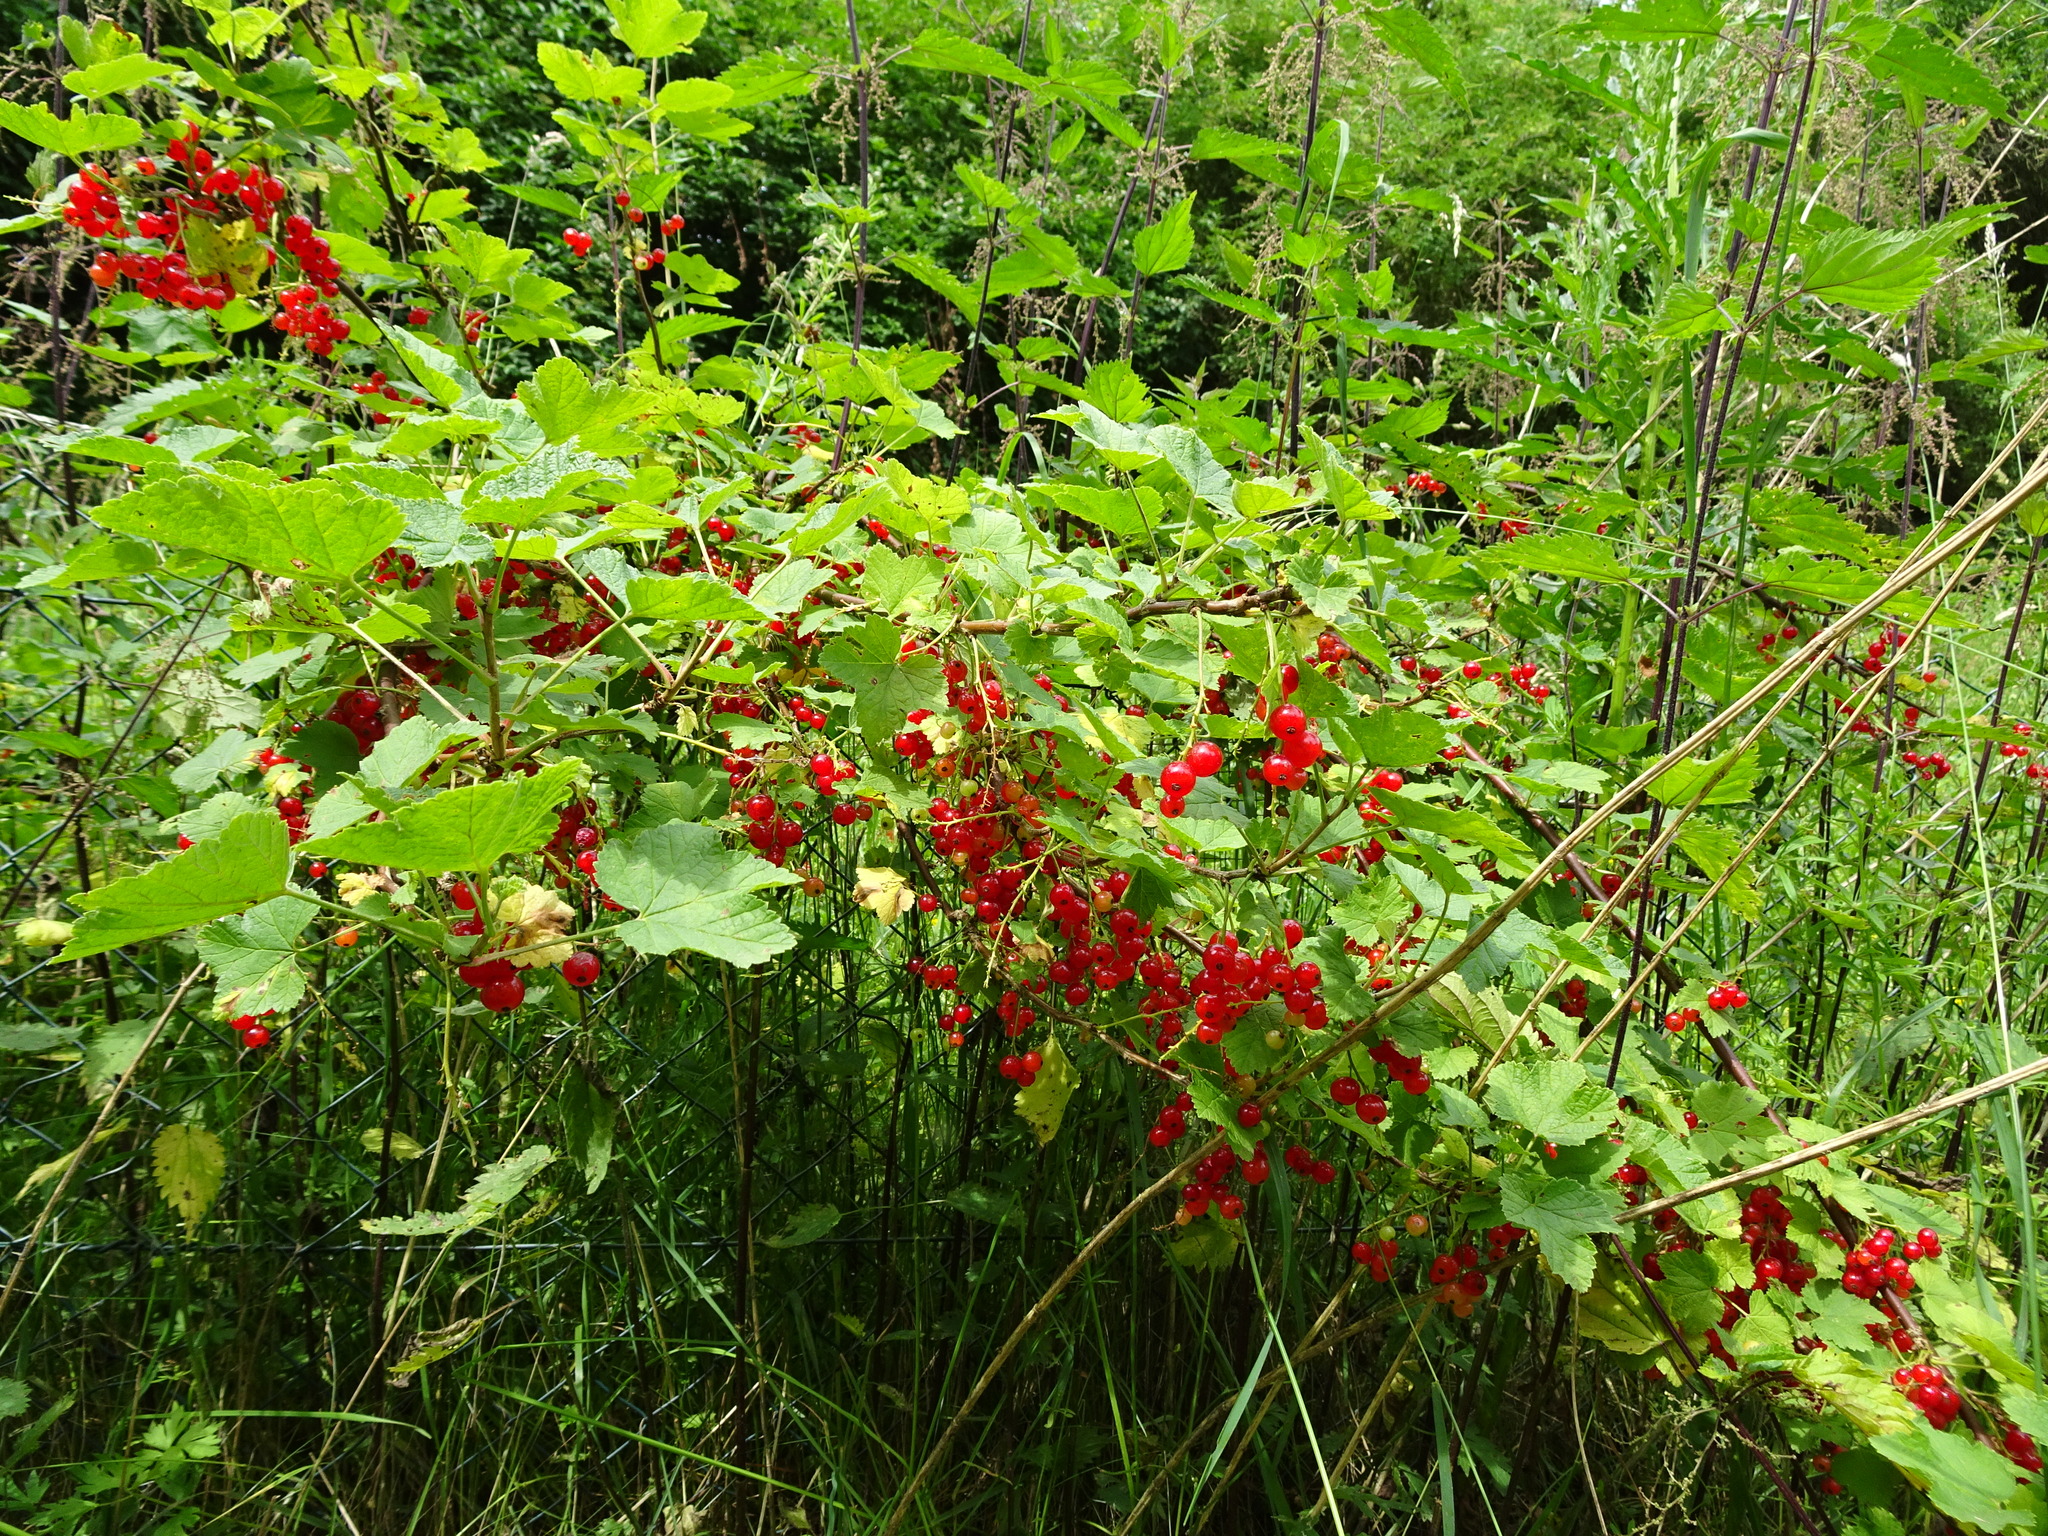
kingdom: Plantae
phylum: Tracheophyta
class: Magnoliopsida
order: Saxifragales
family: Grossulariaceae
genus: Ribes
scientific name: Ribes rubrum
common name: Red currant
